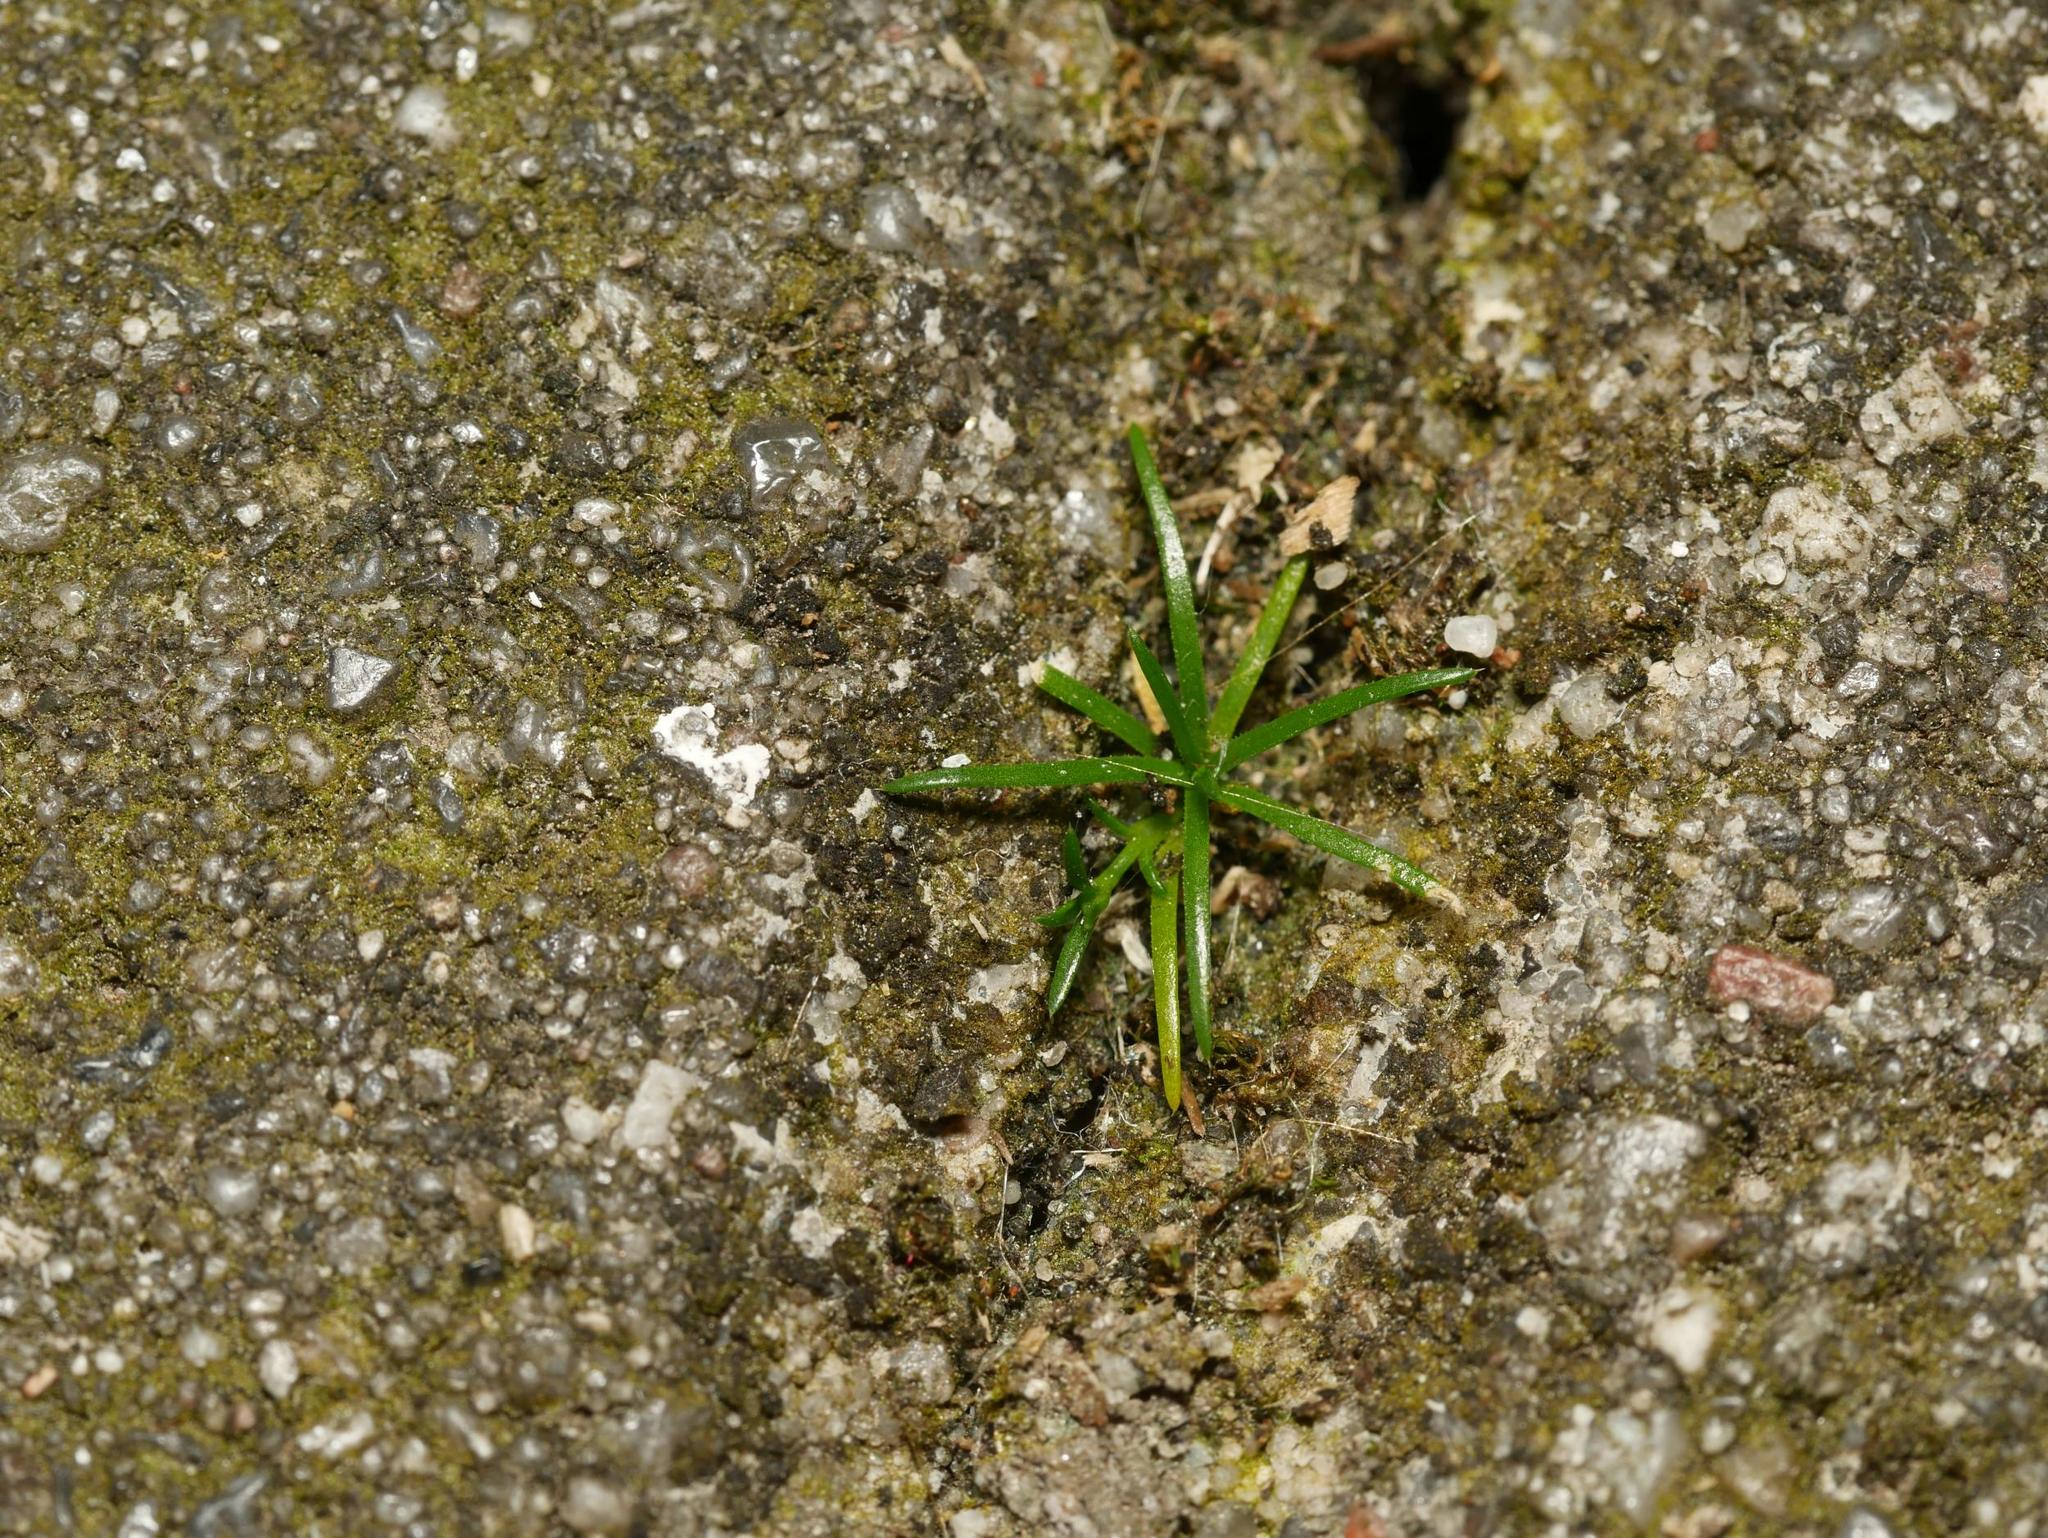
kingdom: Plantae
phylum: Tracheophyta
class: Magnoliopsida
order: Caryophyllales
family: Caryophyllaceae
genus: Sagina
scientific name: Sagina procumbens
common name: Procumbent pearlwort
